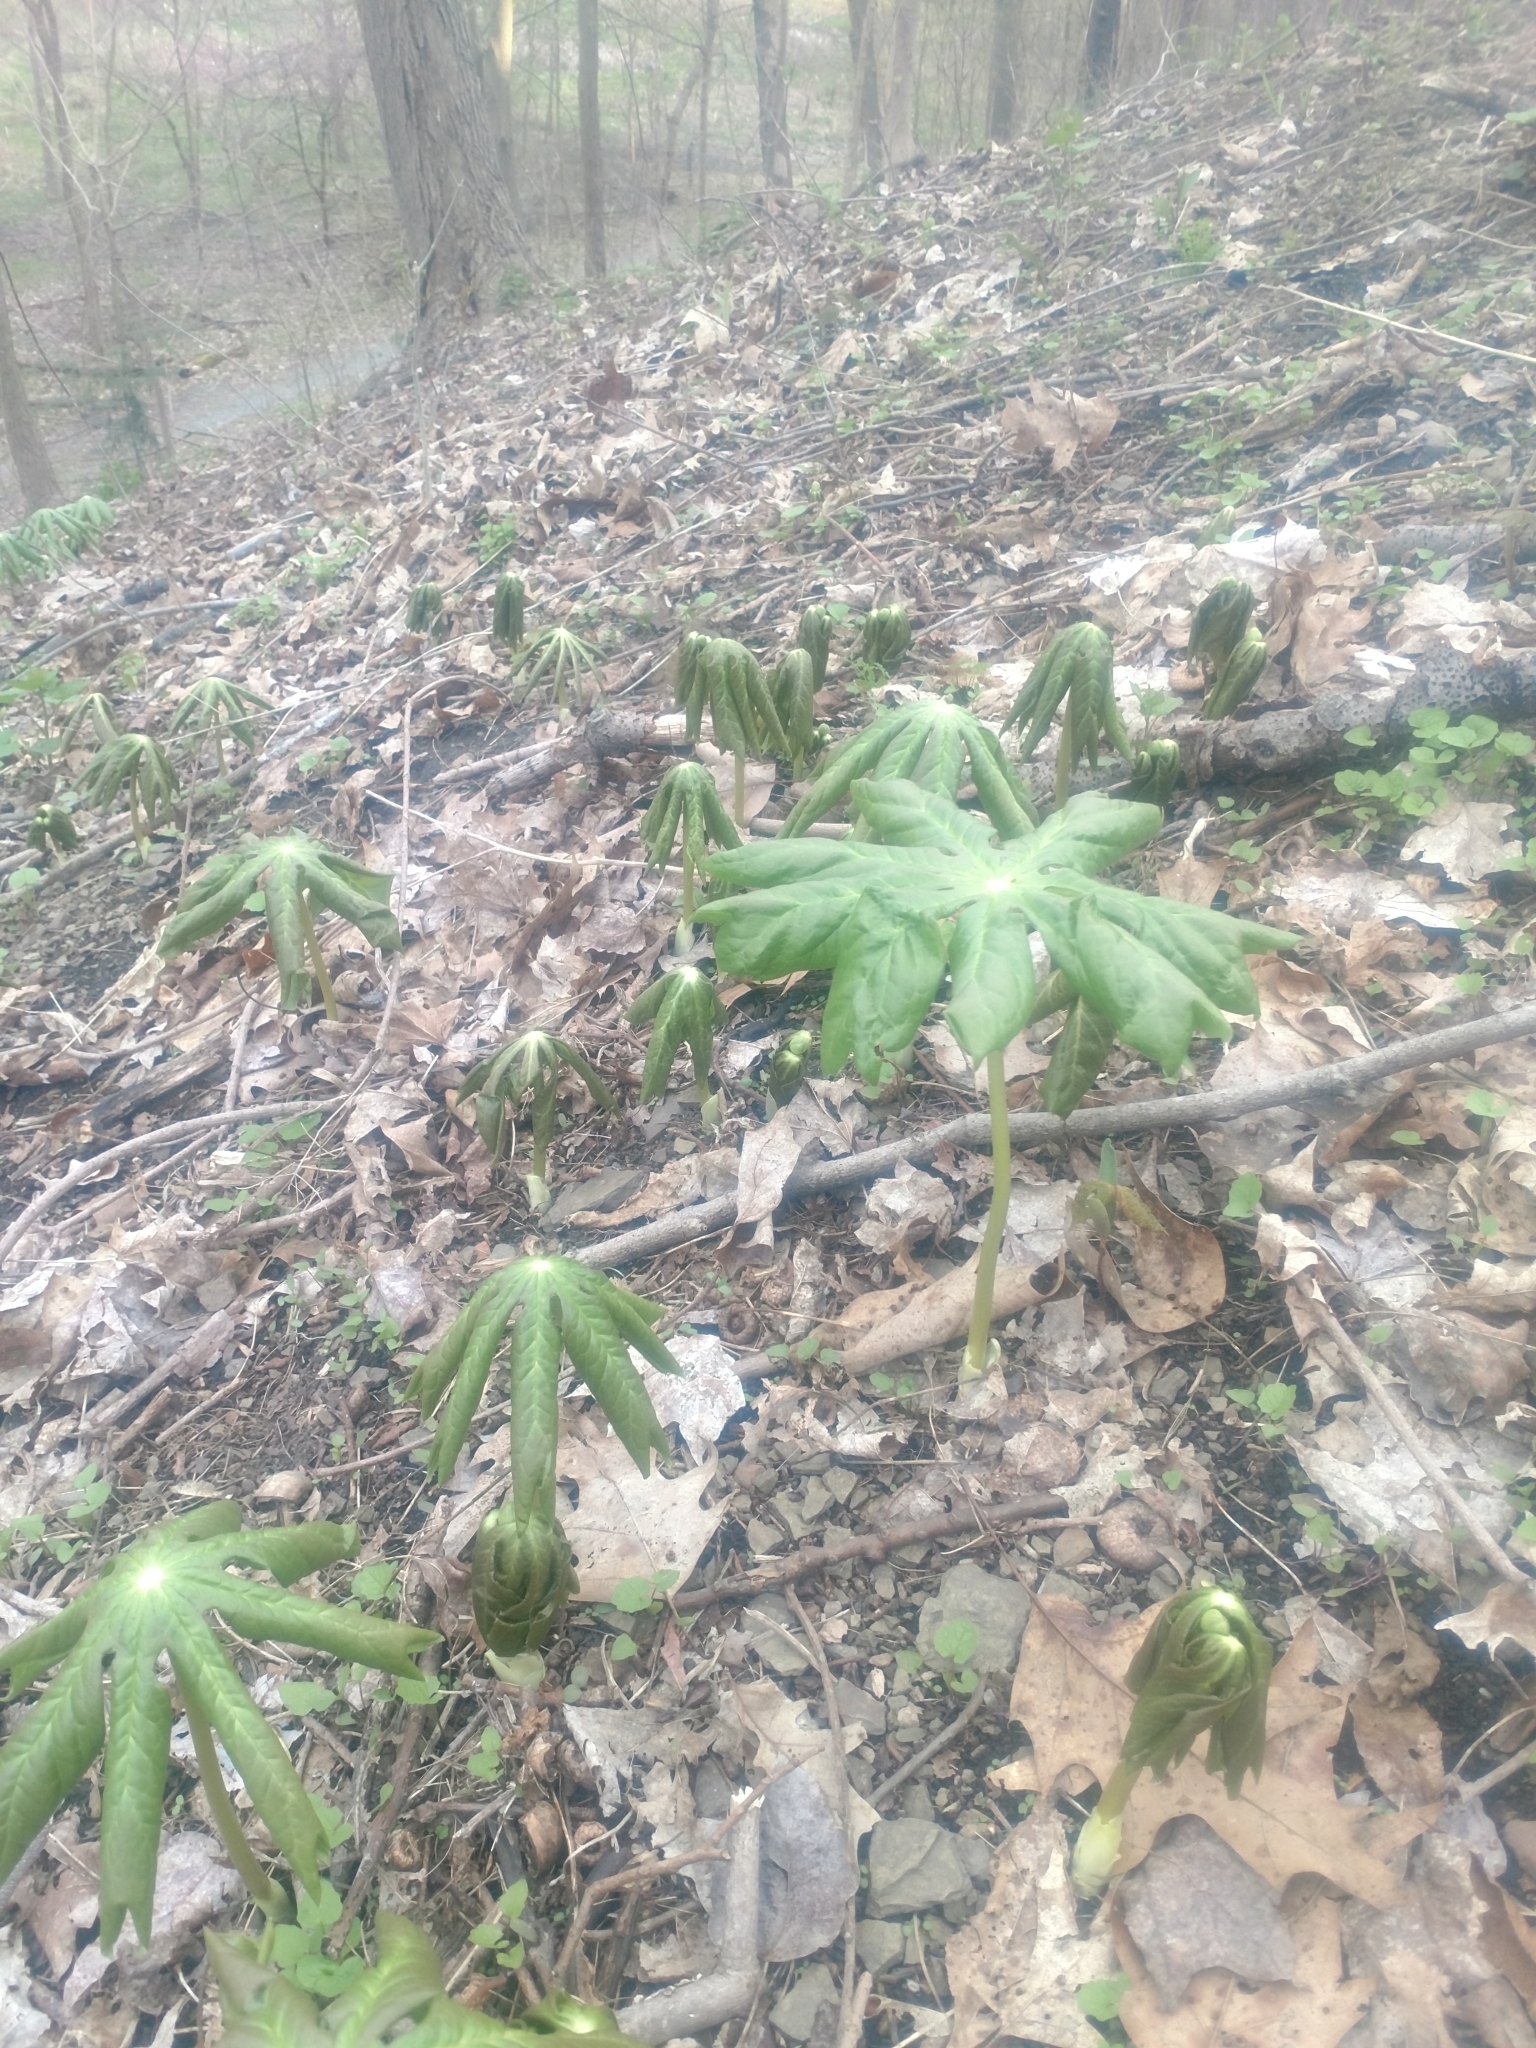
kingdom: Plantae
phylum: Tracheophyta
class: Magnoliopsida
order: Ranunculales
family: Berberidaceae
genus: Podophyllum
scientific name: Podophyllum peltatum
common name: Wild mandrake
